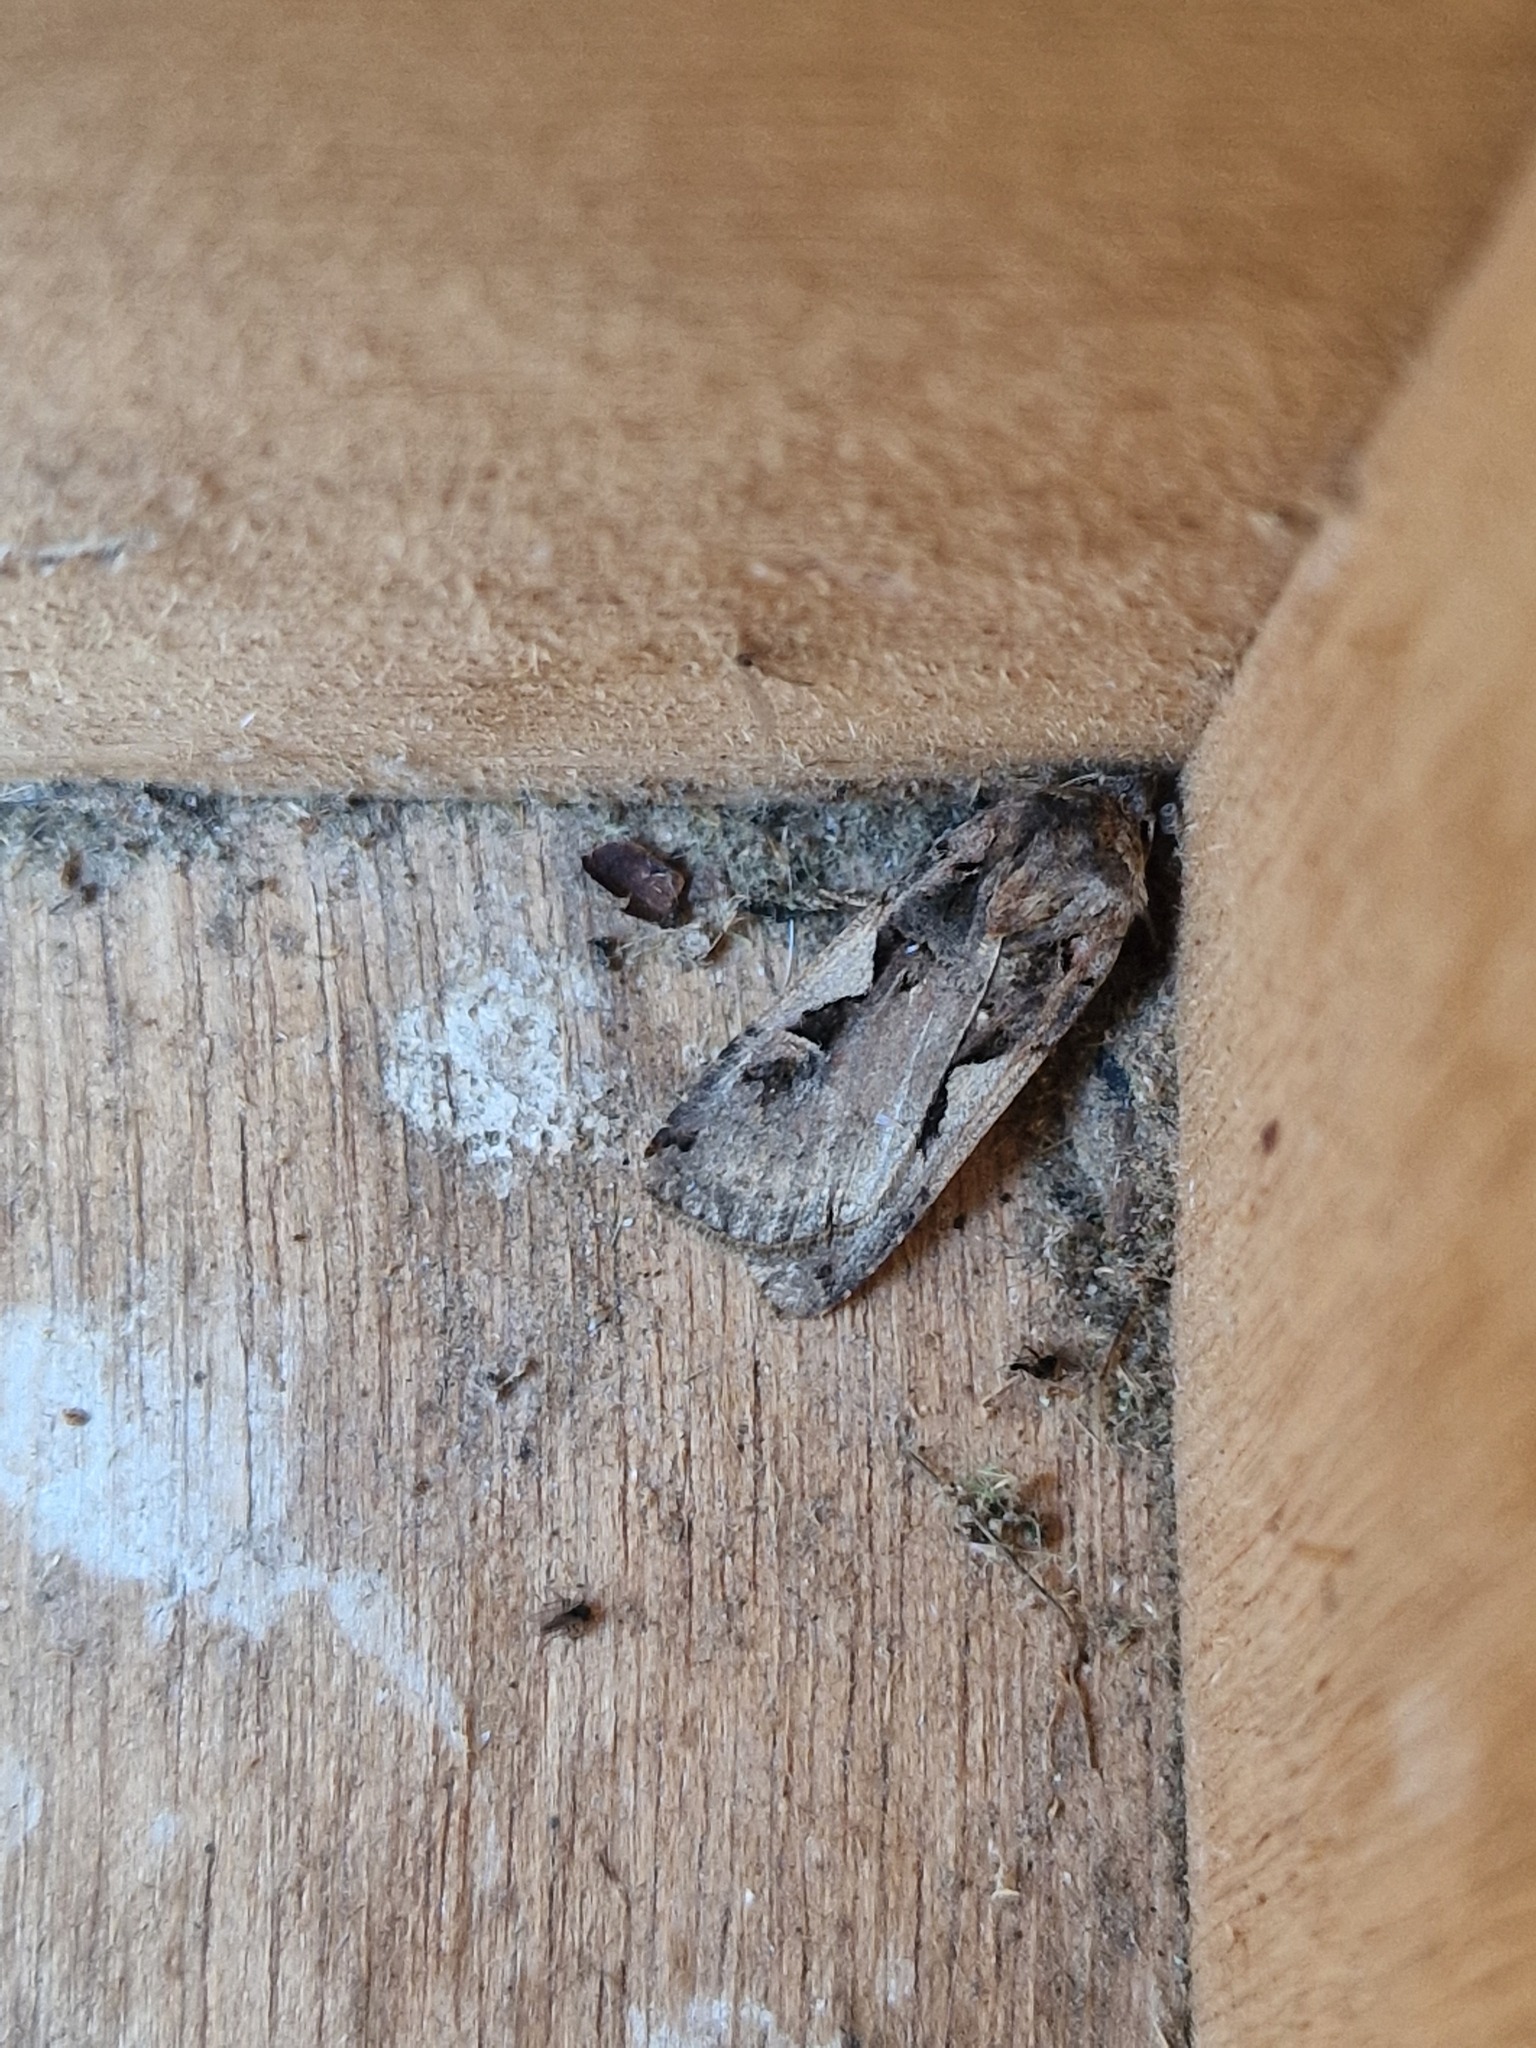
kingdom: Animalia
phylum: Arthropoda
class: Insecta
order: Lepidoptera
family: Noctuidae
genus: Xestia
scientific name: Xestia c-nigrum
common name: Setaceous hebrew character
